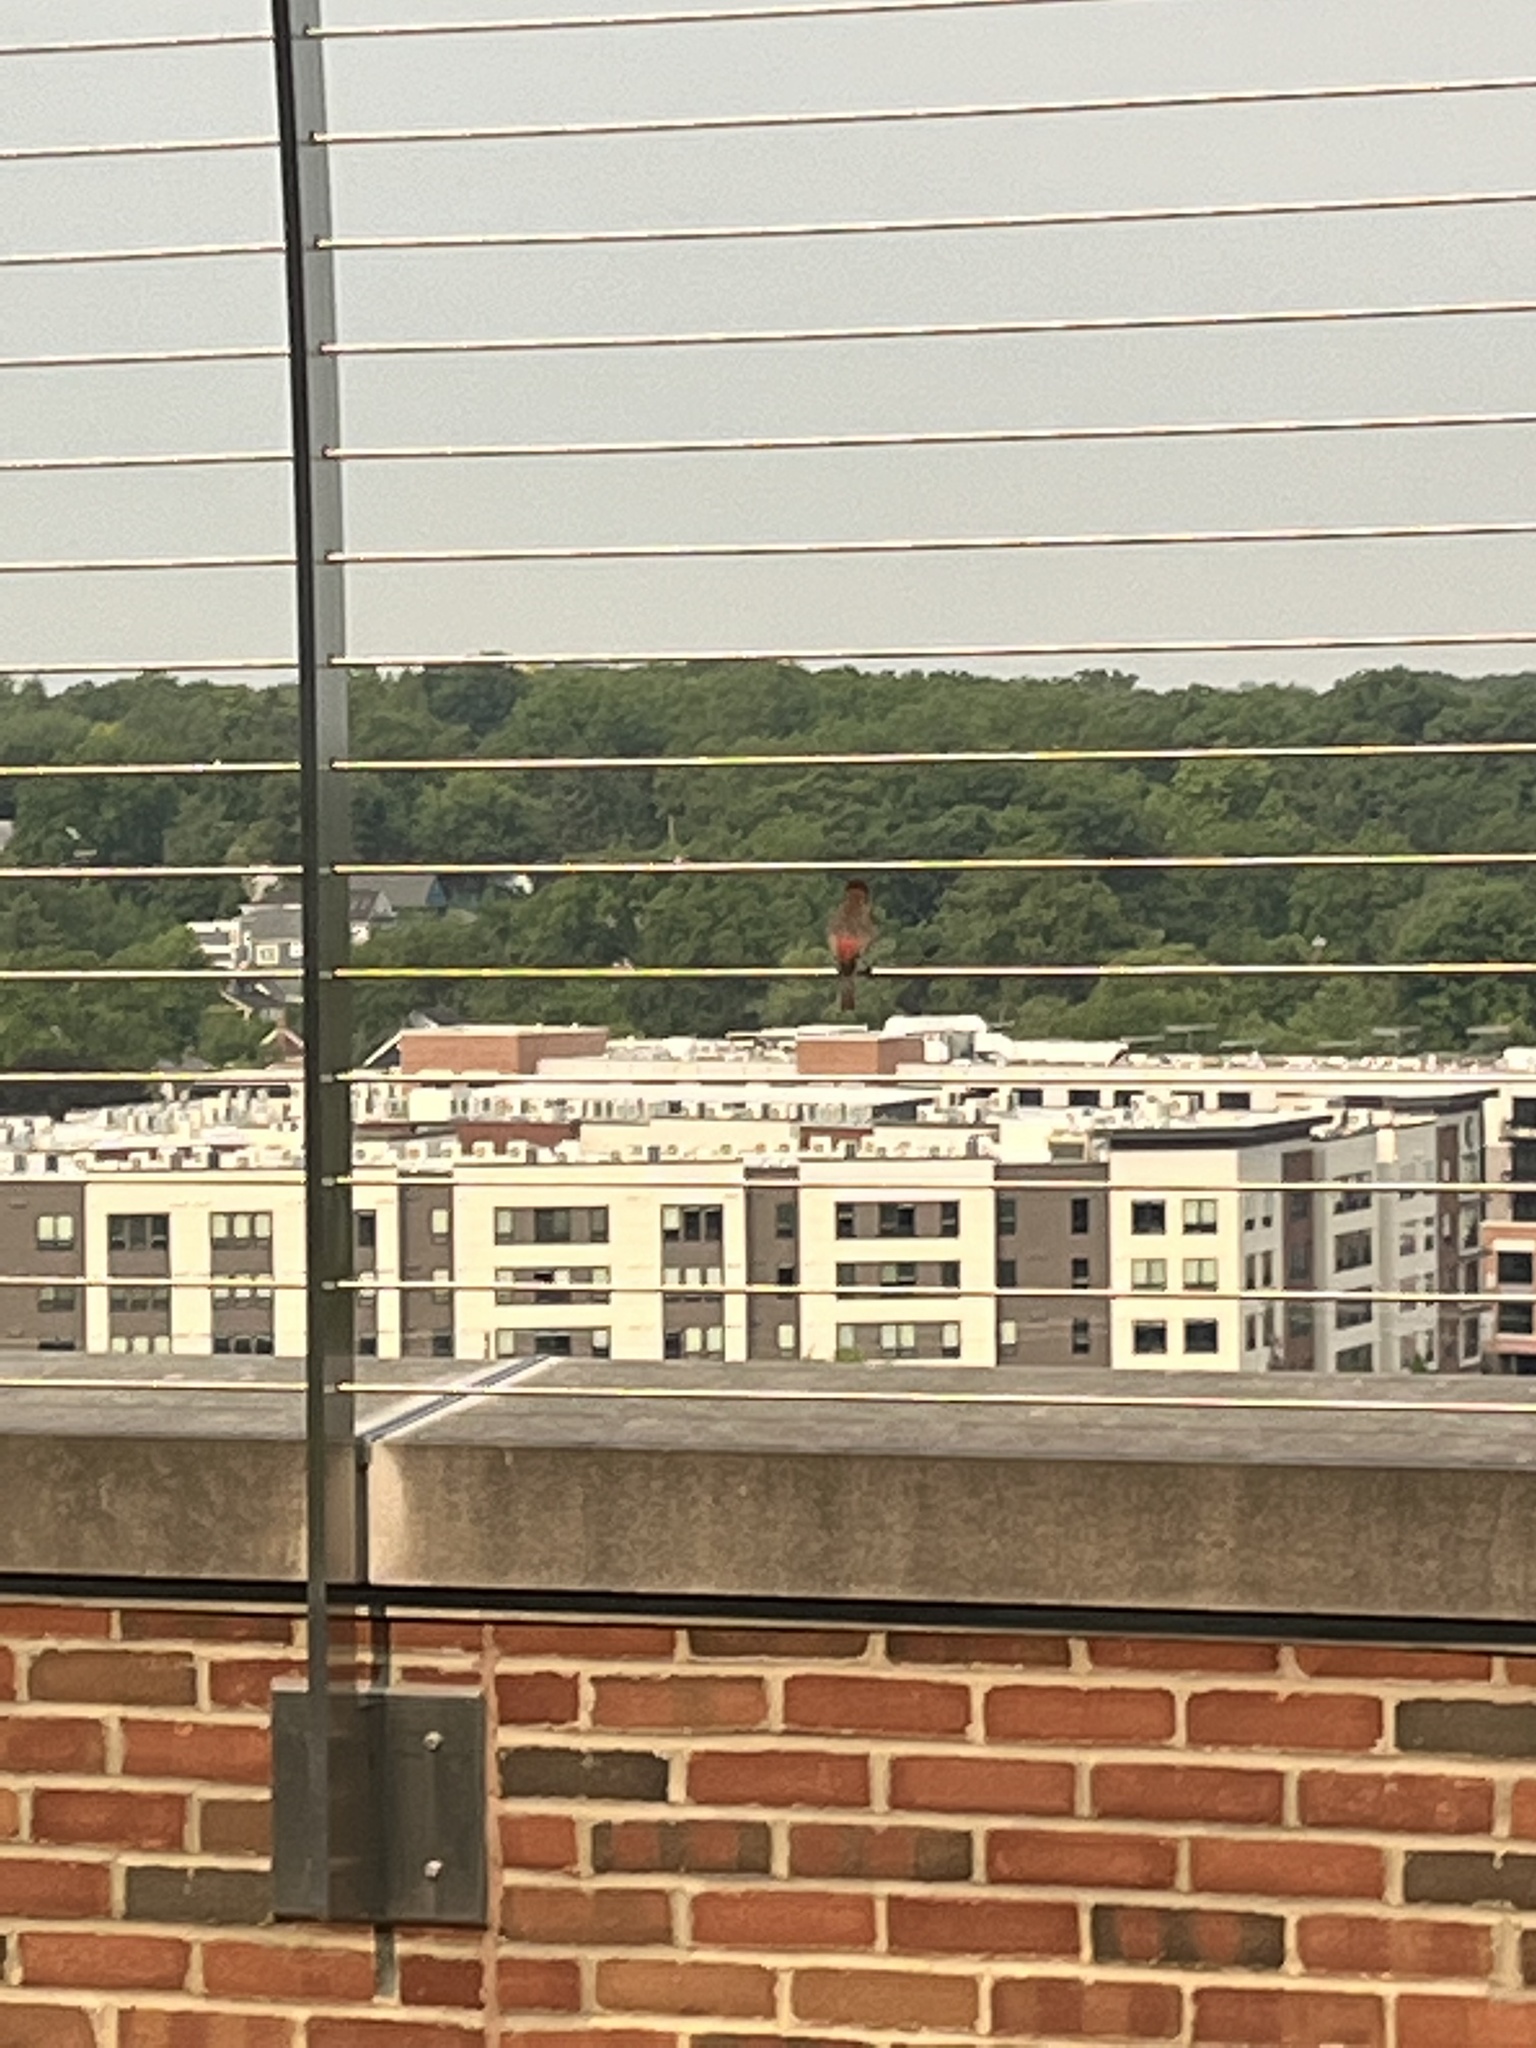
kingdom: Animalia
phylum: Chordata
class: Aves
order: Passeriformes
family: Fringillidae
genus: Haemorhous
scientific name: Haemorhous mexicanus
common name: House finch
